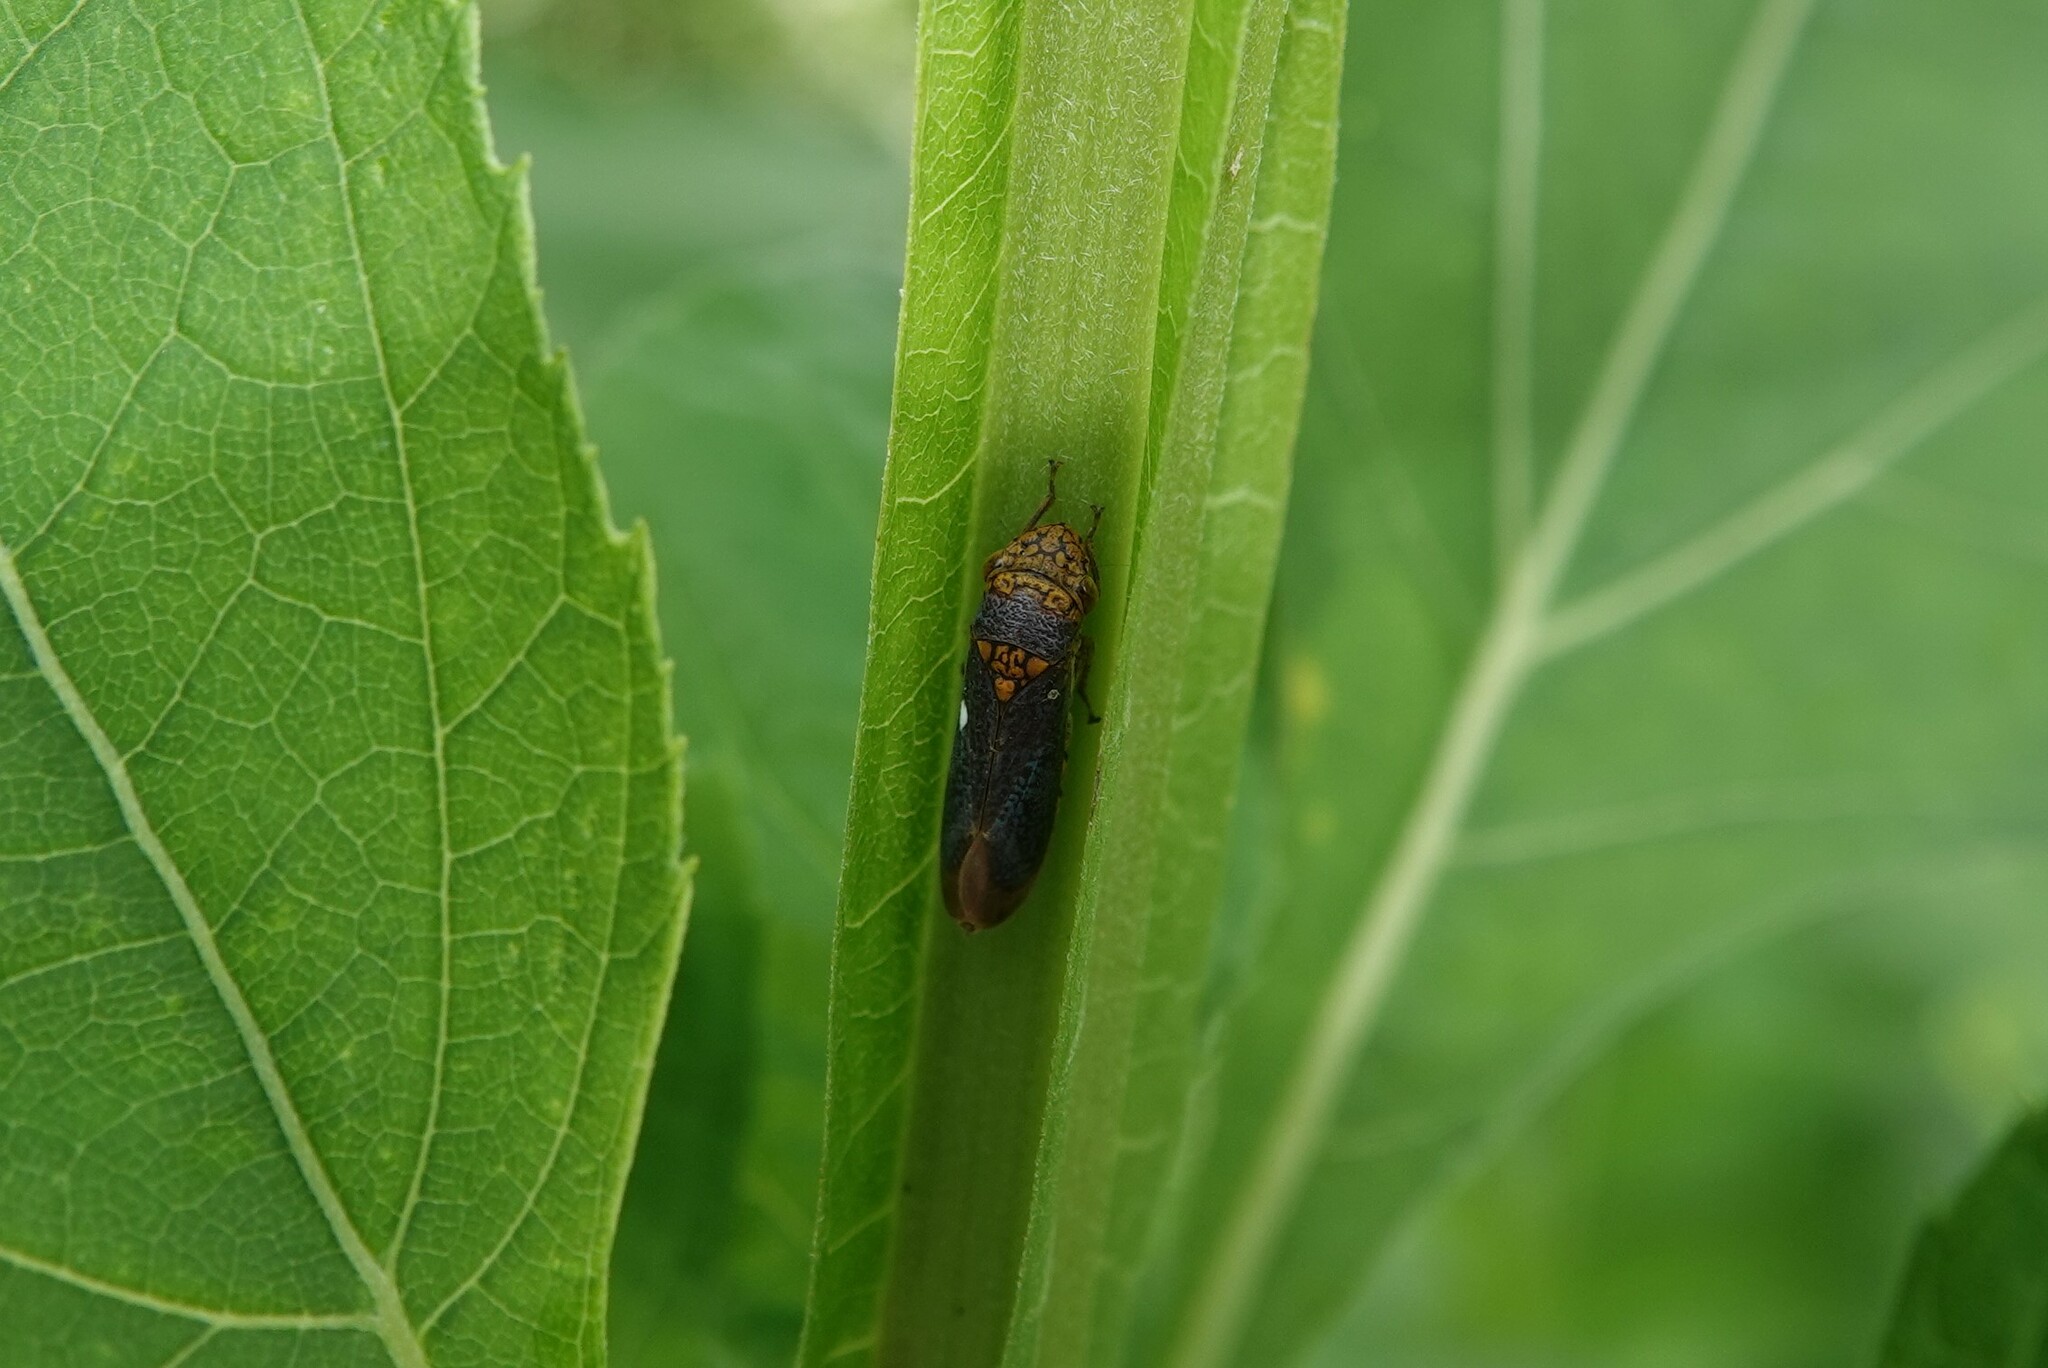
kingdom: Animalia
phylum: Arthropoda
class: Insecta
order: Hemiptera
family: Cicadellidae
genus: Oncometopia
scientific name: Oncometopia orbona
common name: Broad-headed sharpshooter
